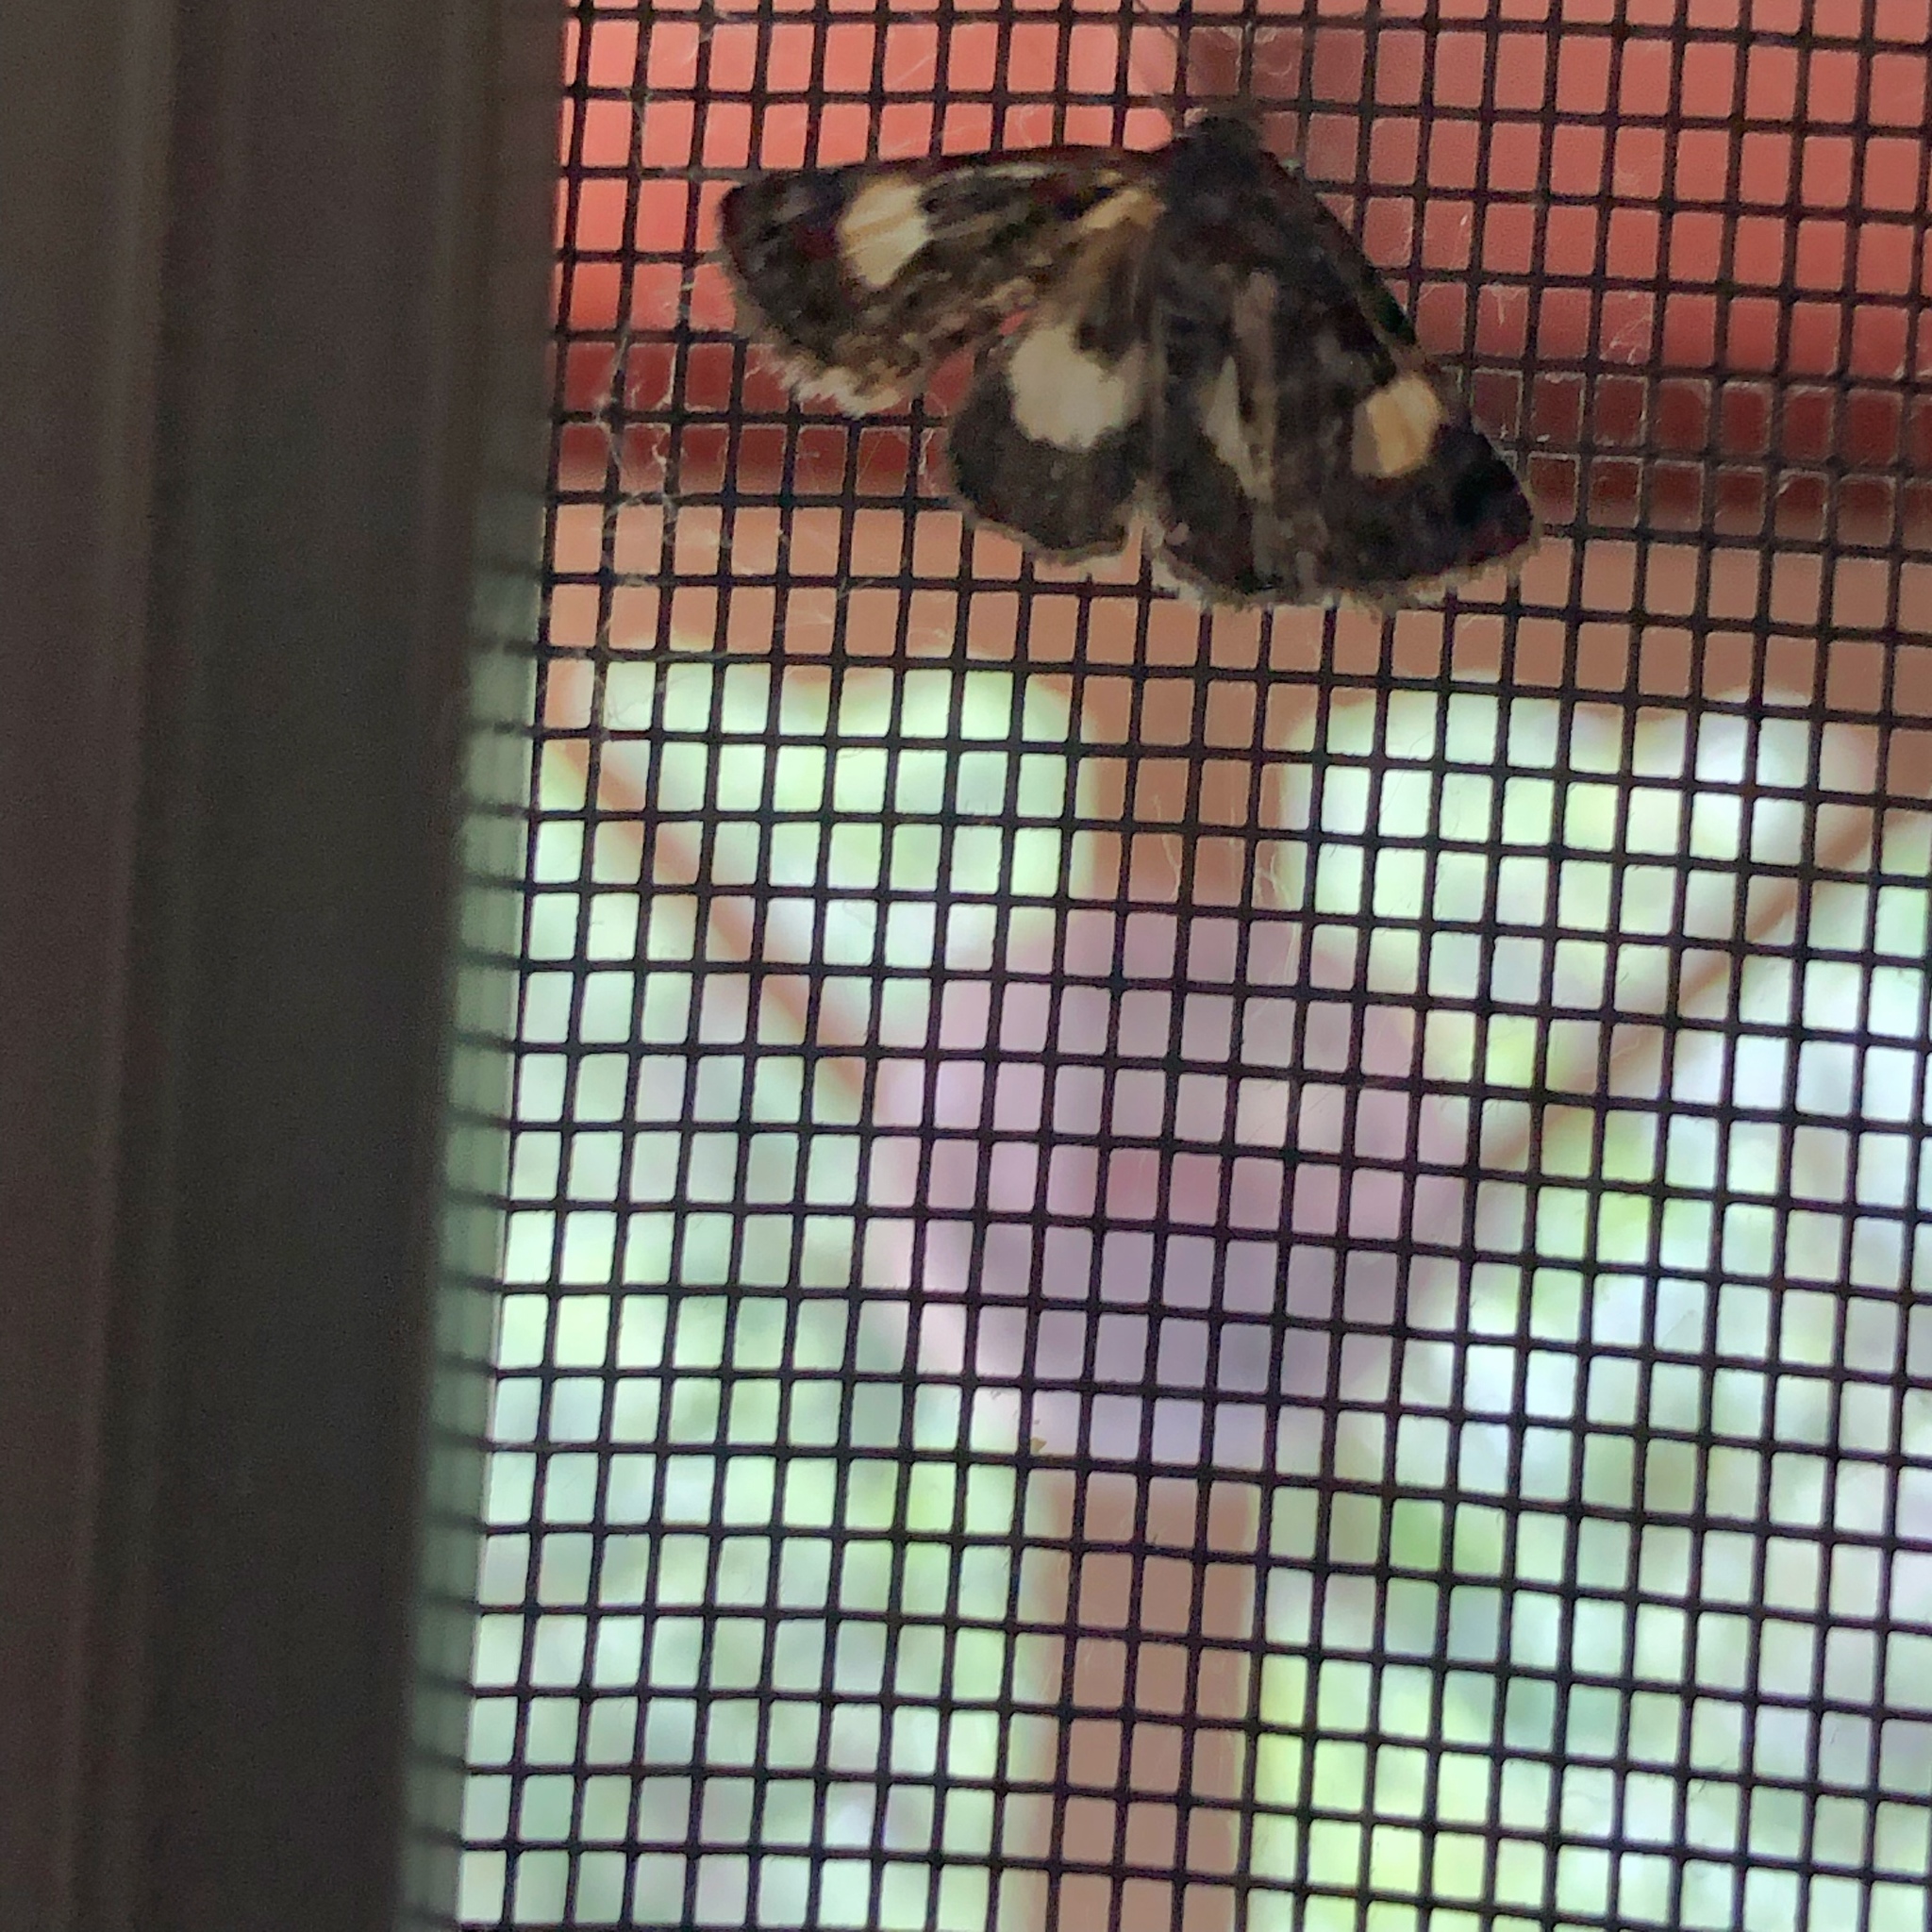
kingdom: Animalia
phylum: Arthropoda
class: Insecta
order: Lepidoptera
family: Erebidae
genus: Tyta
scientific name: Tyta luctuosa
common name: Four-spotted
